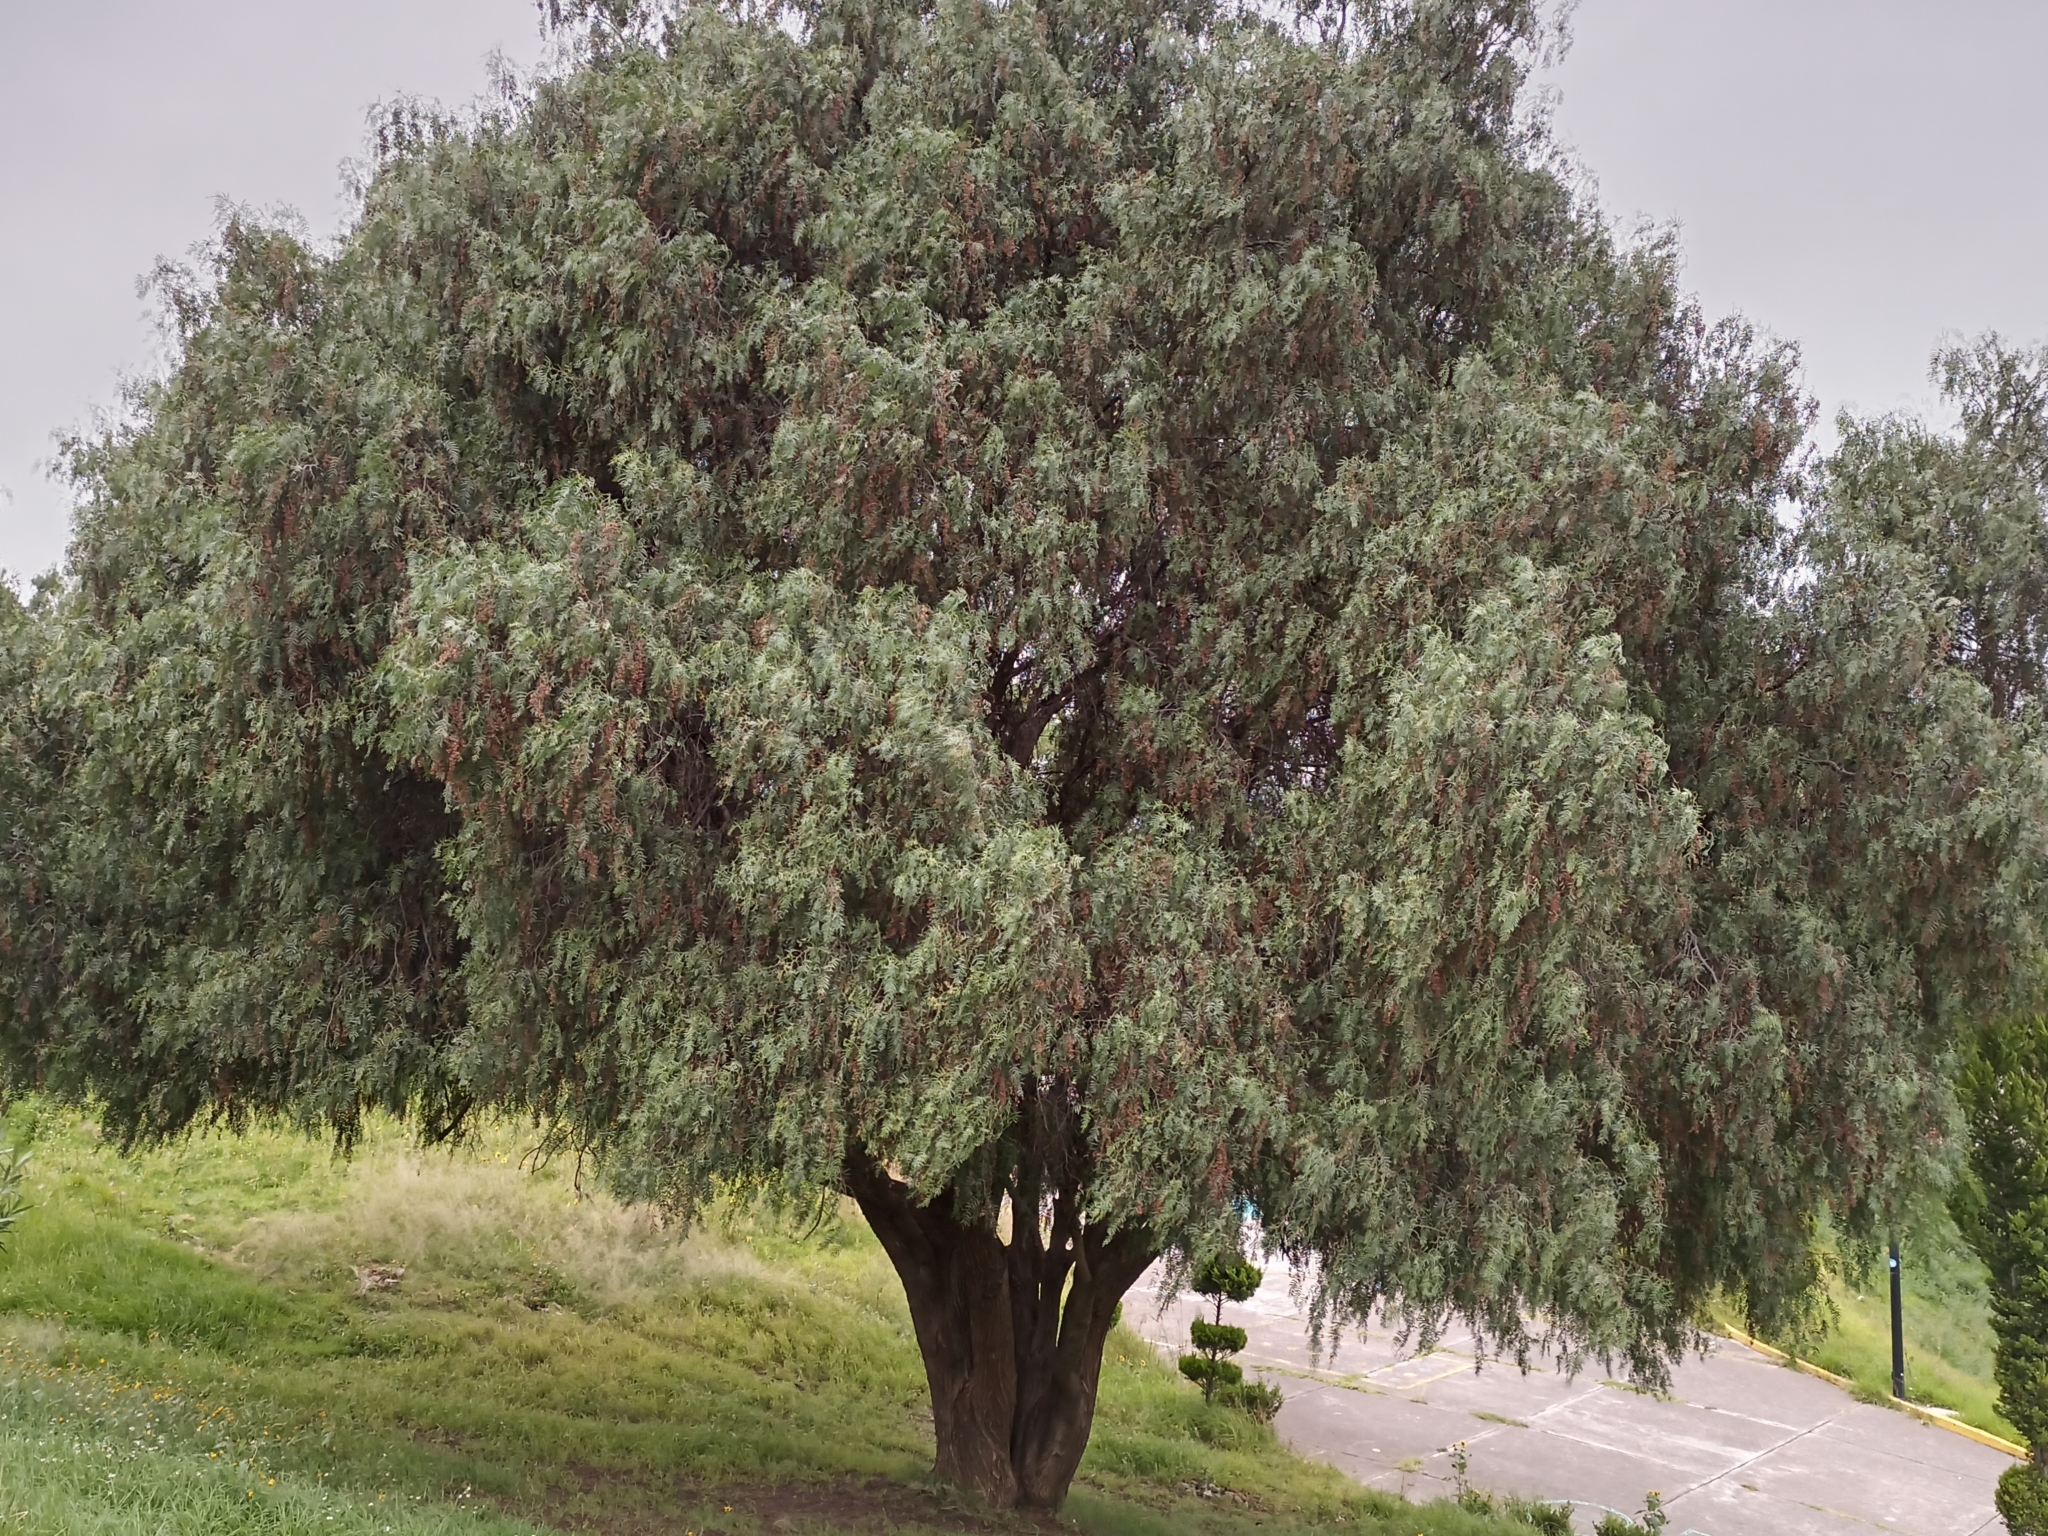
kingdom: Plantae
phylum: Tracheophyta
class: Magnoliopsida
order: Sapindales
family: Anacardiaceae
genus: Schinus
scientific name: Schinus molle
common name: Peruvian peppertree
